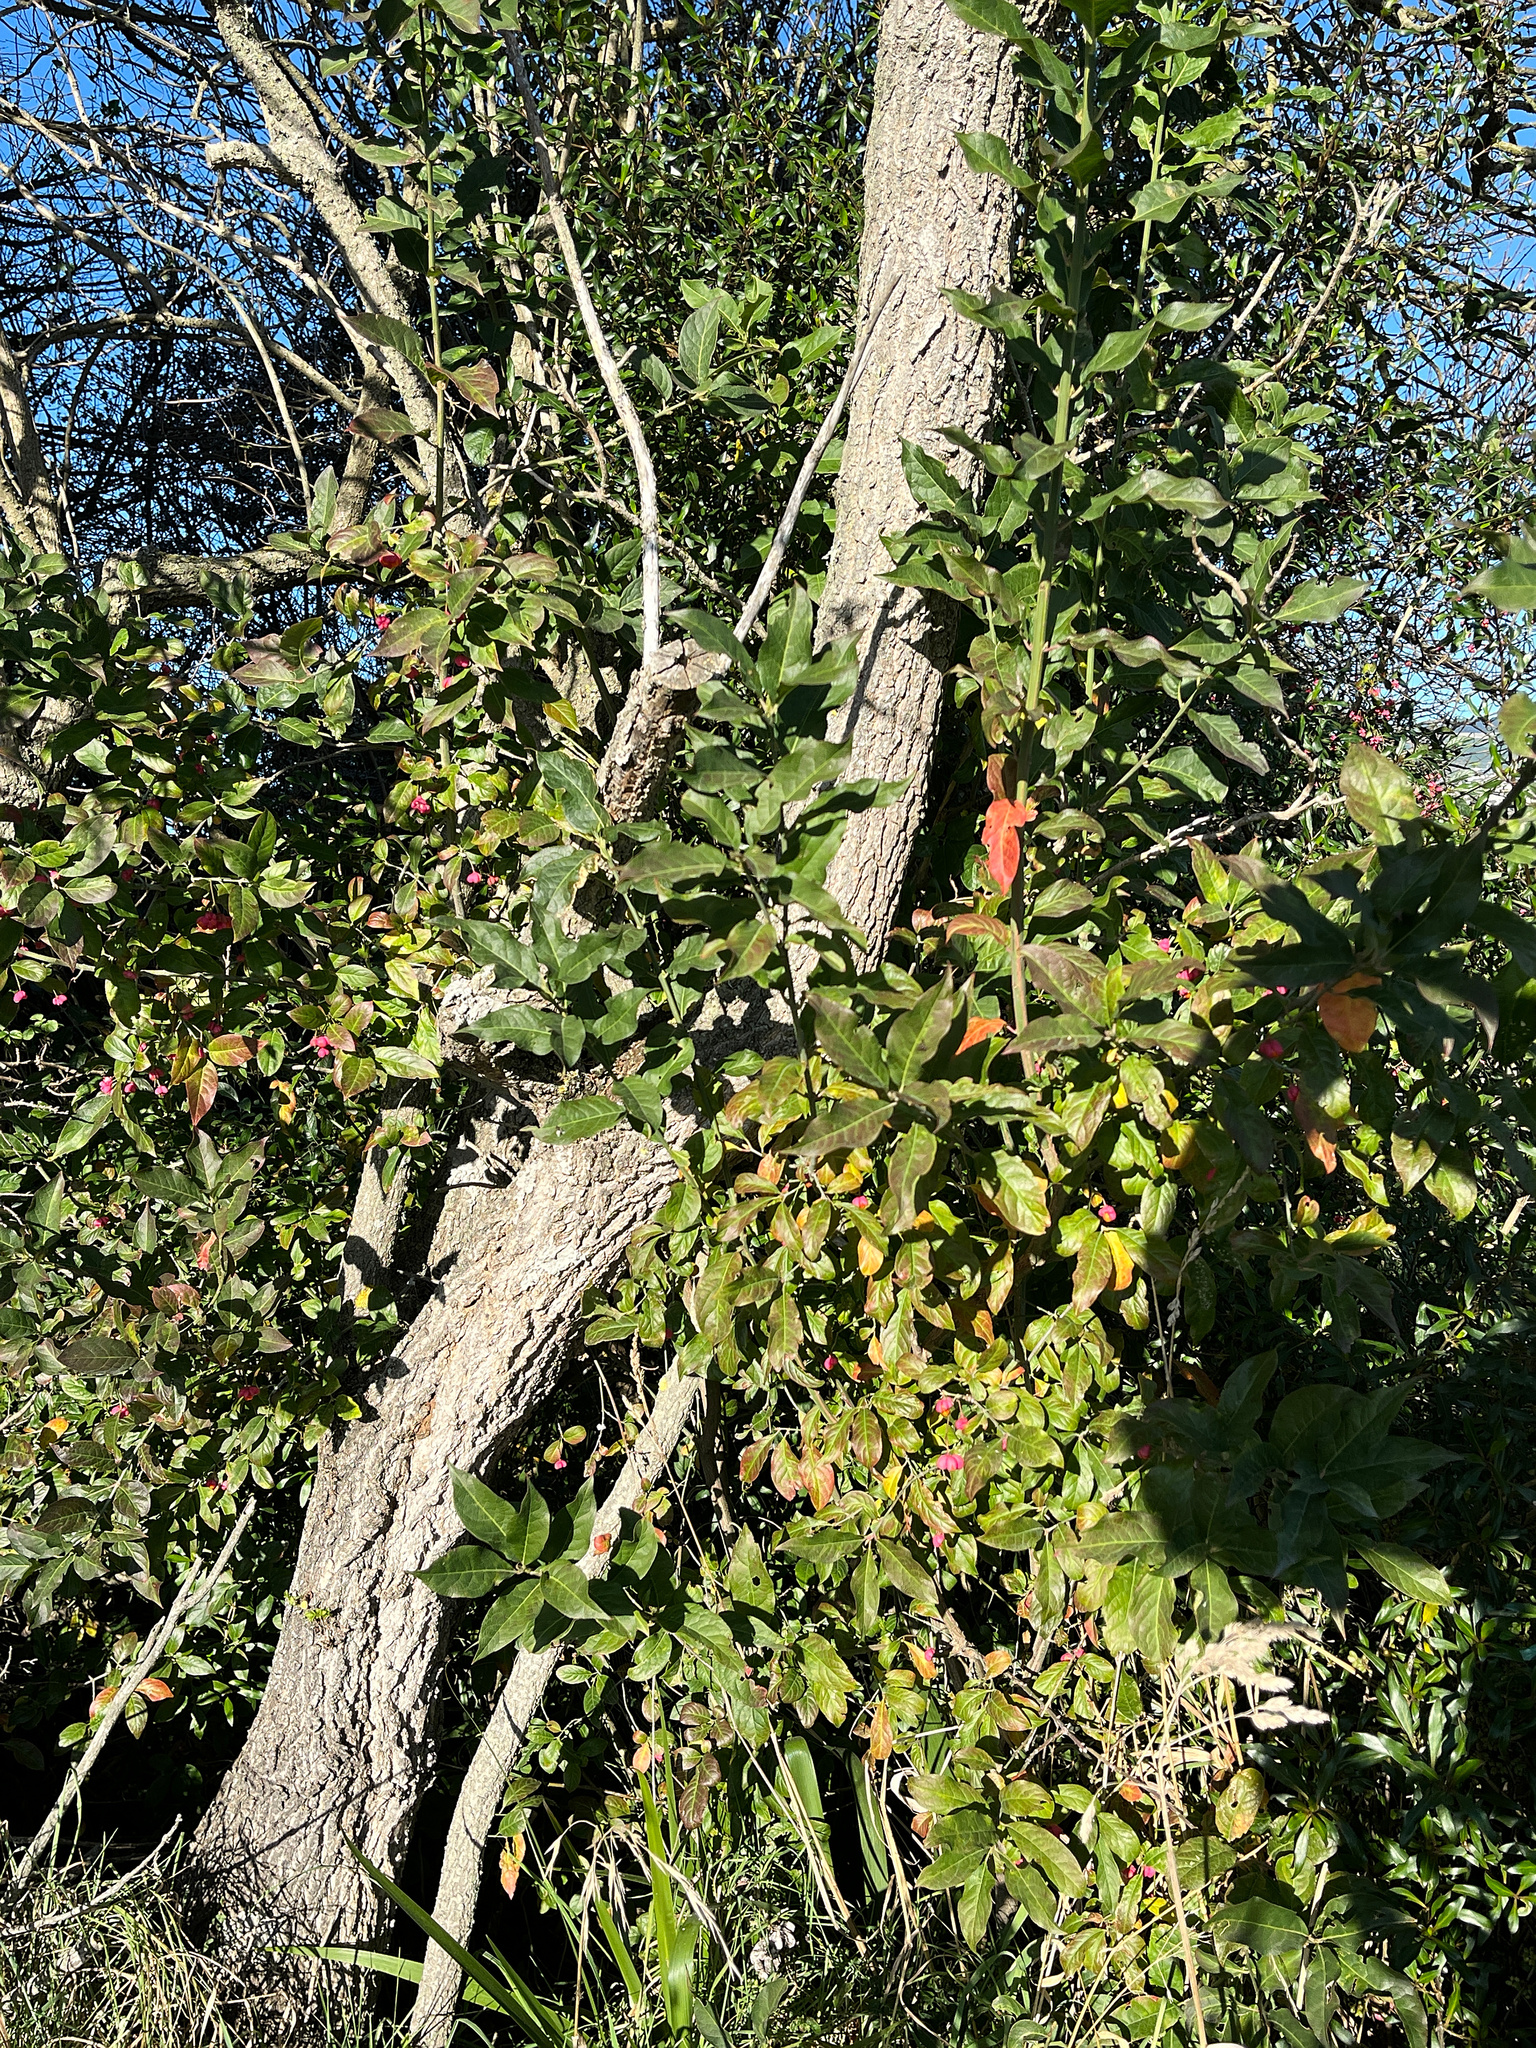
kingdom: Plantae
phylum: Tracheophyta
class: Magnoliopsida
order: Celastrales
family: Celastraceae
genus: Euonymus
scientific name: Euonymus europaeus
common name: Spindle
